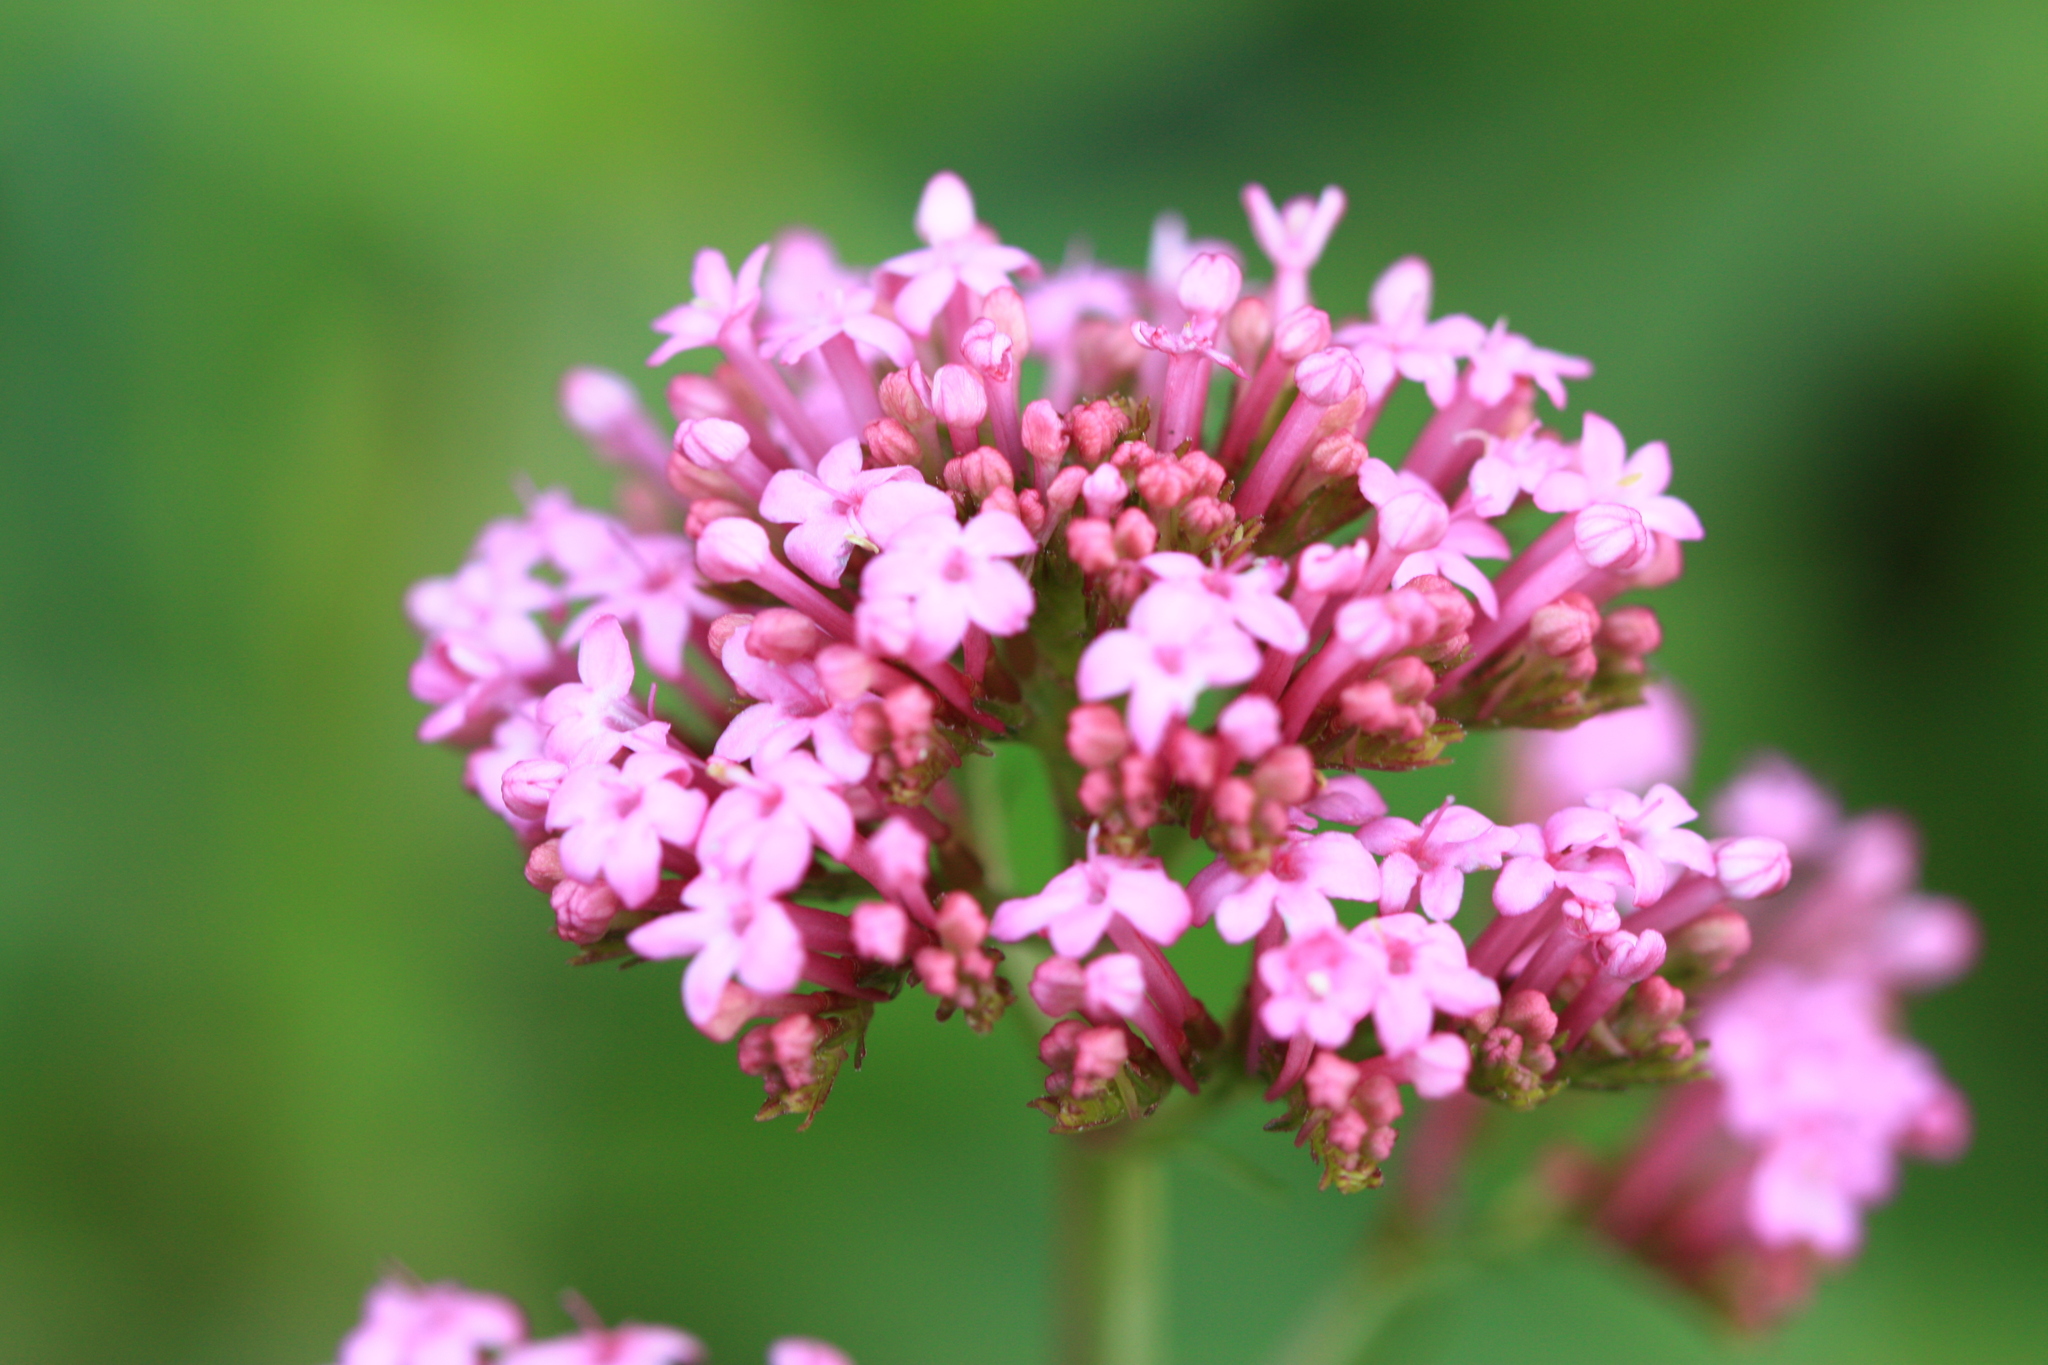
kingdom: Plantae
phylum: Tracheophyta
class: Magnoliopsida
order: Dipsacales
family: Caprifoliaceae
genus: Centranthus
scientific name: Centranthus ruber
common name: Red valerian
